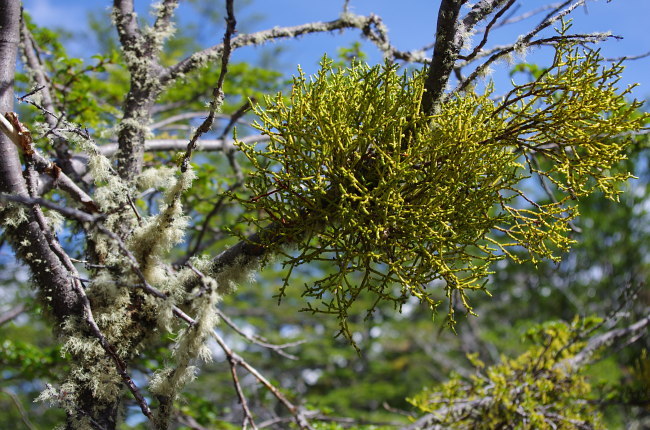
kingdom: Plantae
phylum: Tracheophyta
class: Magnoliopsida
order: Santalales
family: Misodendraceae
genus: Misodendrum
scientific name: Misodendrum punctulatum
